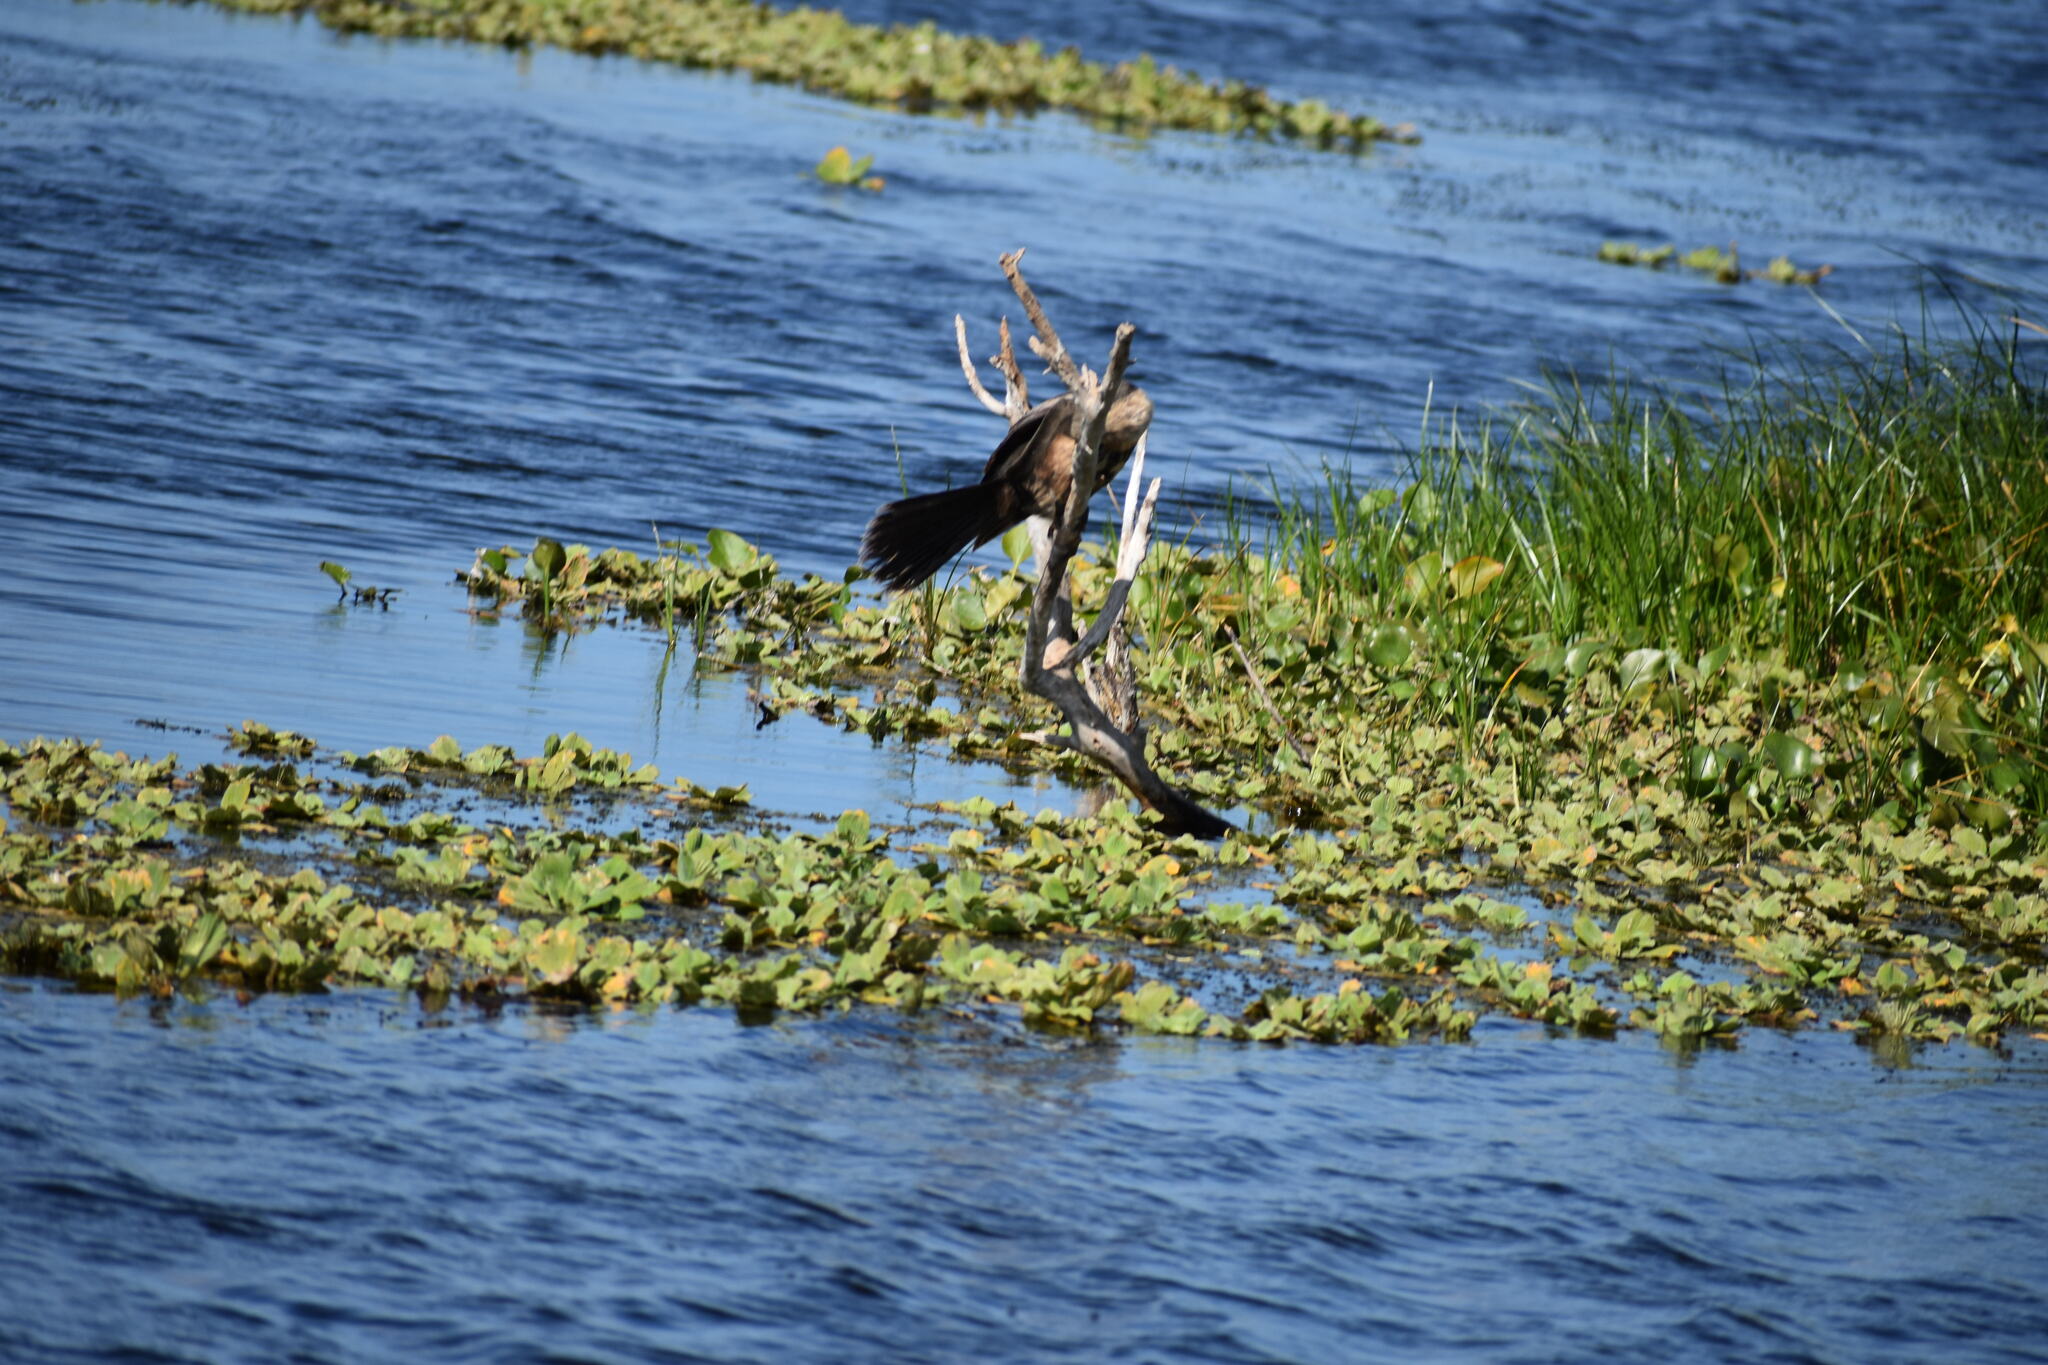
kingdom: Animalia
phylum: Chordata
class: Aves
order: Suliformes
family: Anhingidae
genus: Anhinga
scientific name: Anhinga anhinga
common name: Anhinga
